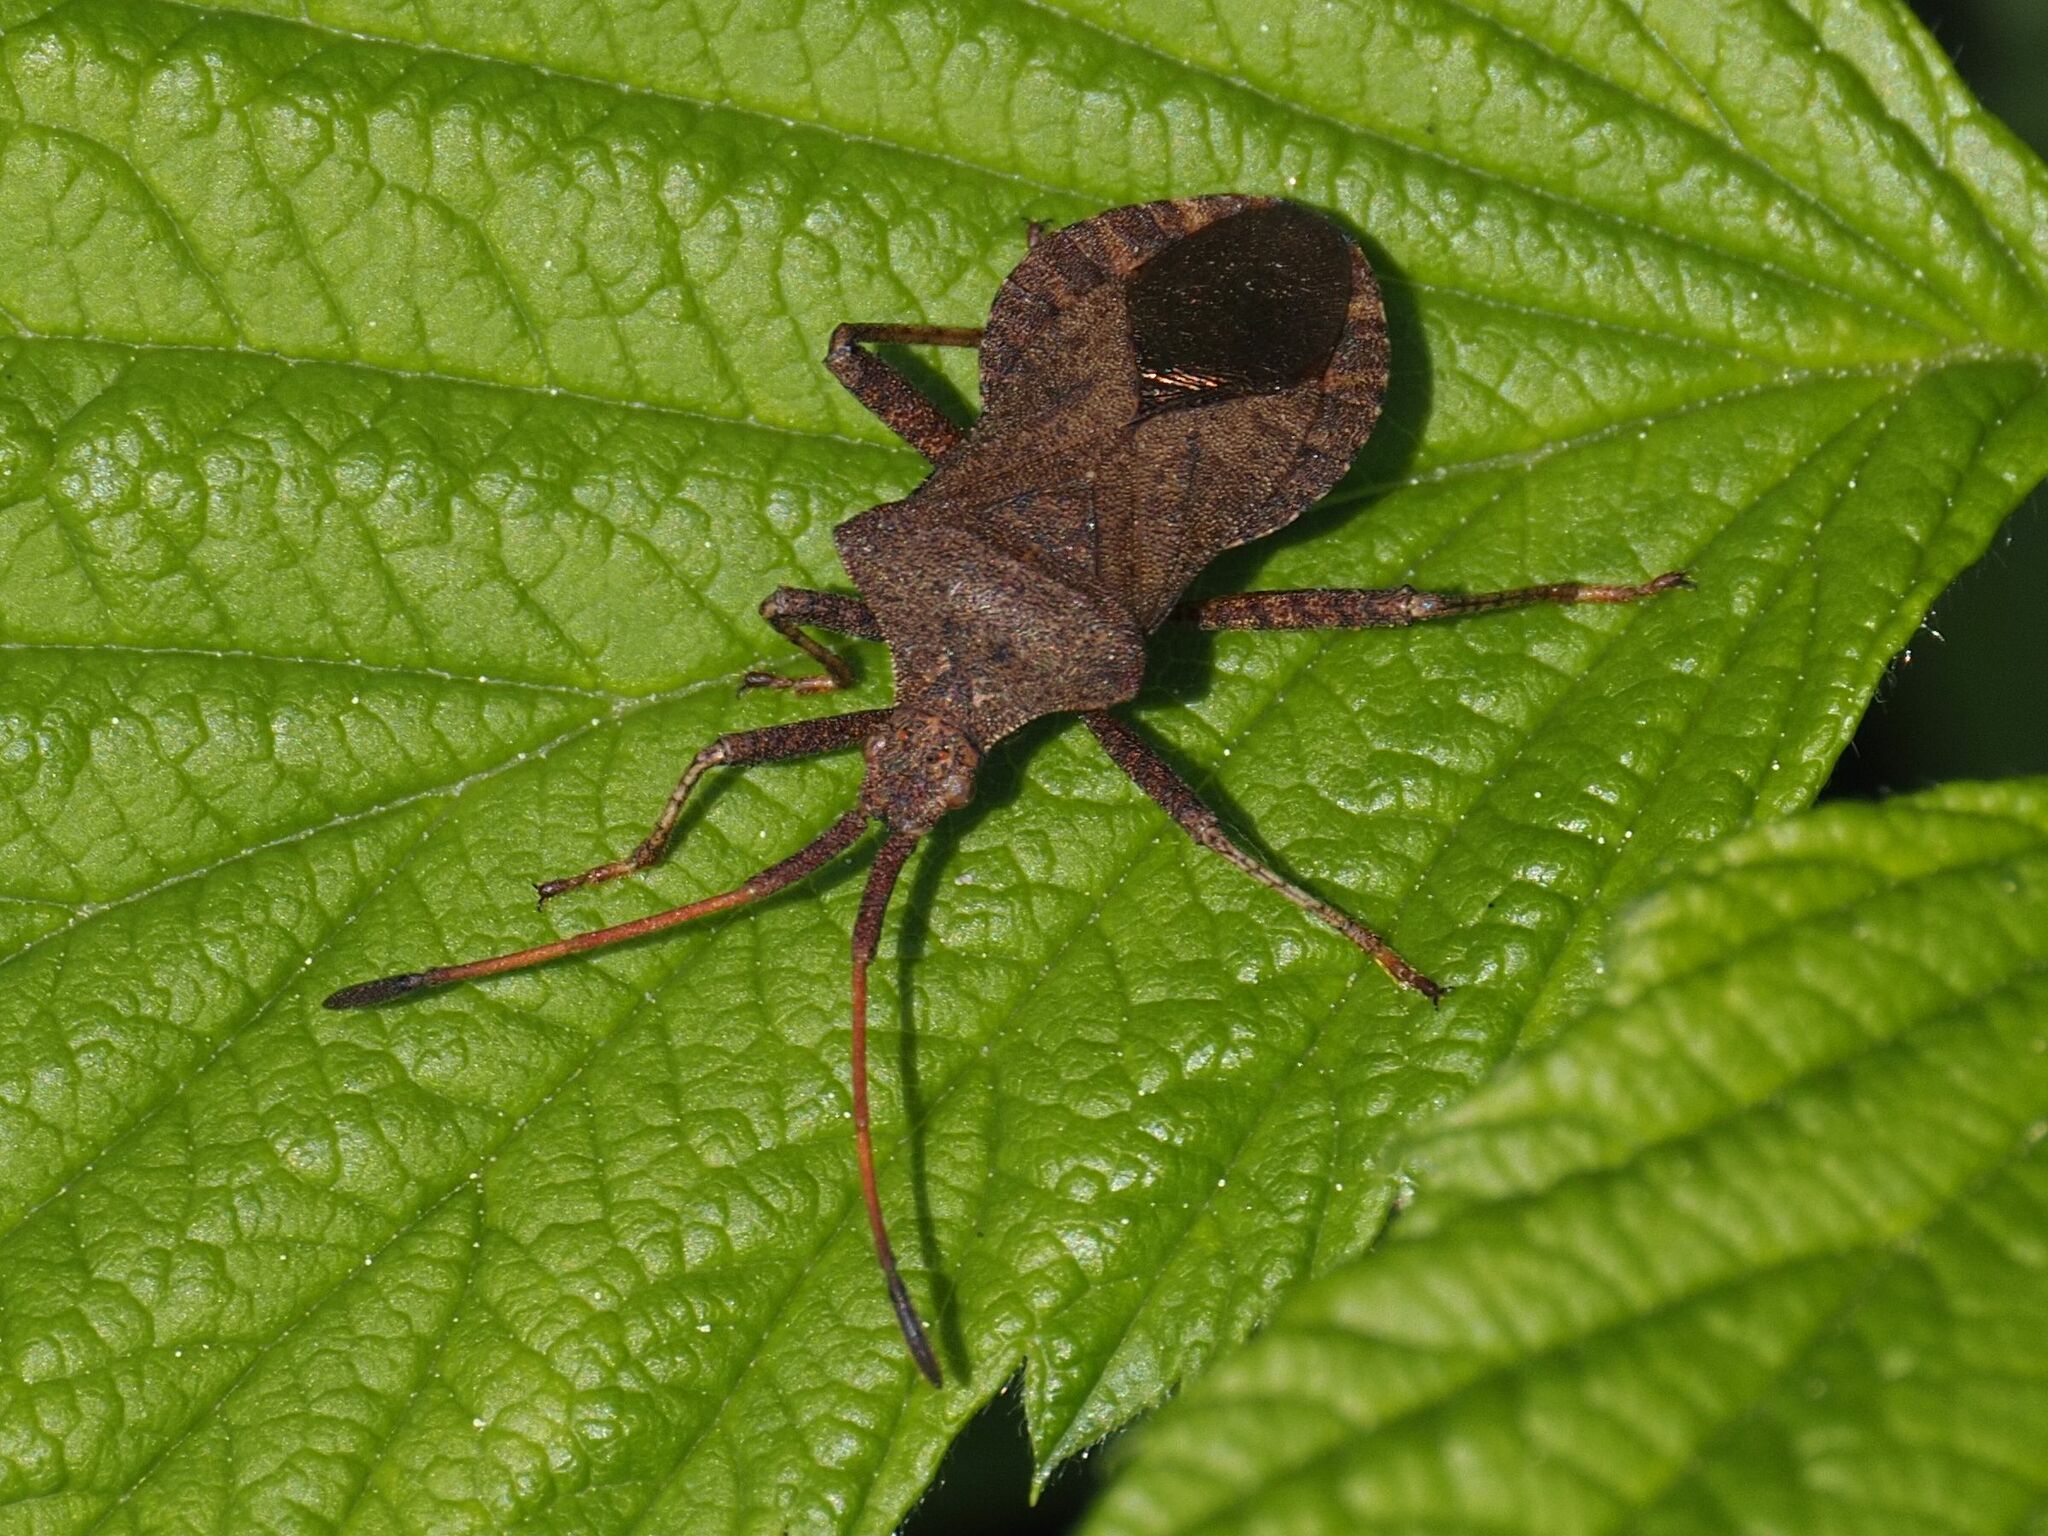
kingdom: Animalia
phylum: Arthropoda
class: Insecta
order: Hemiptera
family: Coreidae
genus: Coreus
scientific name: Coreus marginatus
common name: Dock bug
